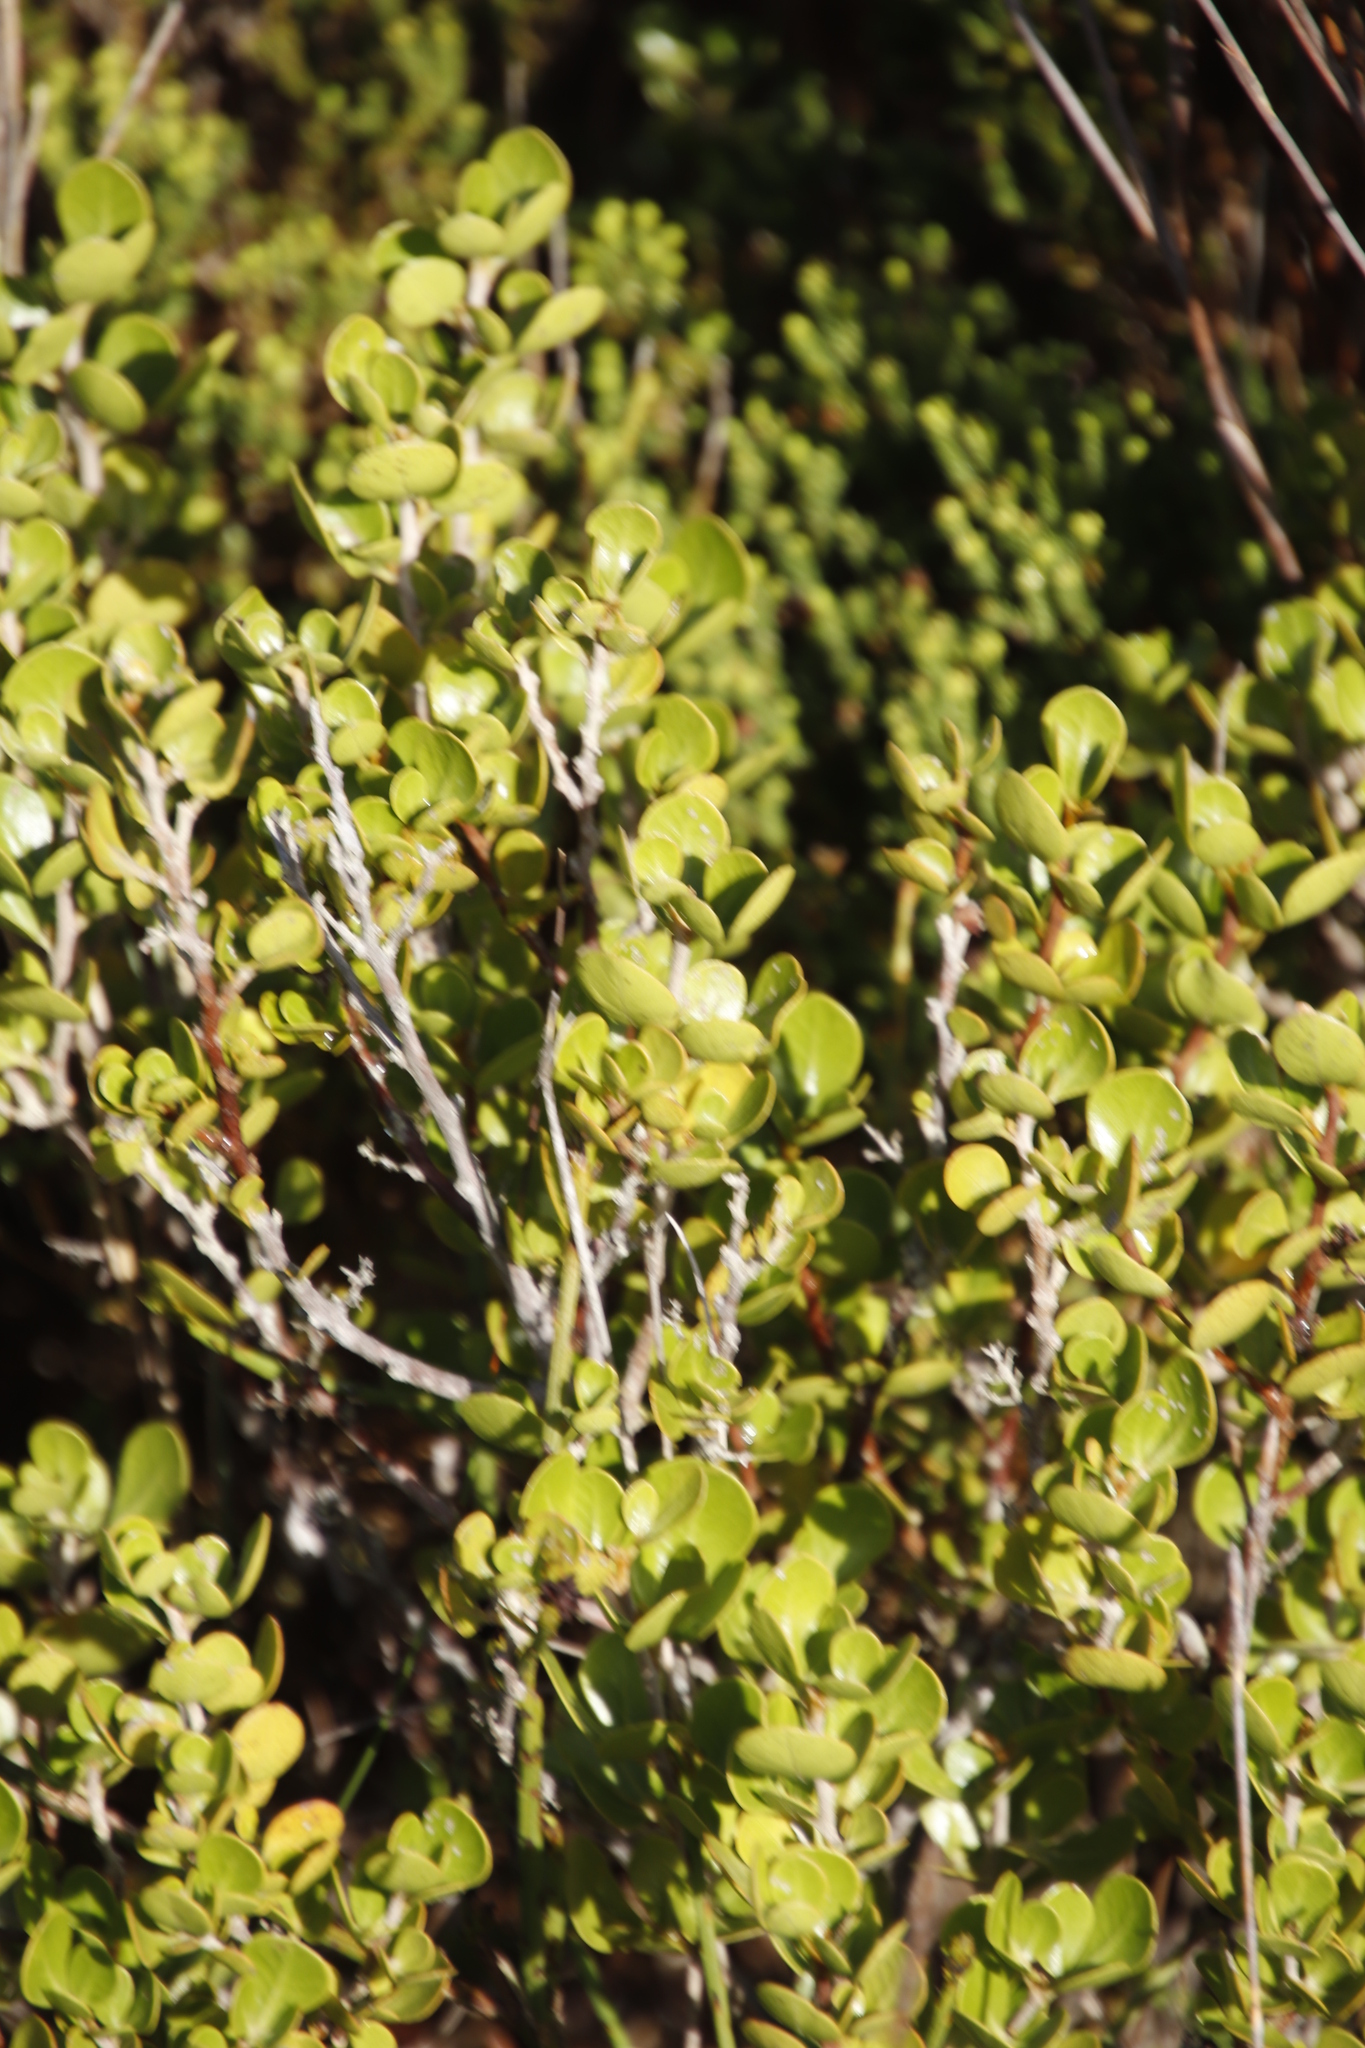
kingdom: Plantae
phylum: Tracheophyta
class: Magnoliopsida
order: Sapindales
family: Anacardiaceae
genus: Searsia
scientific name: Searsia lucida
